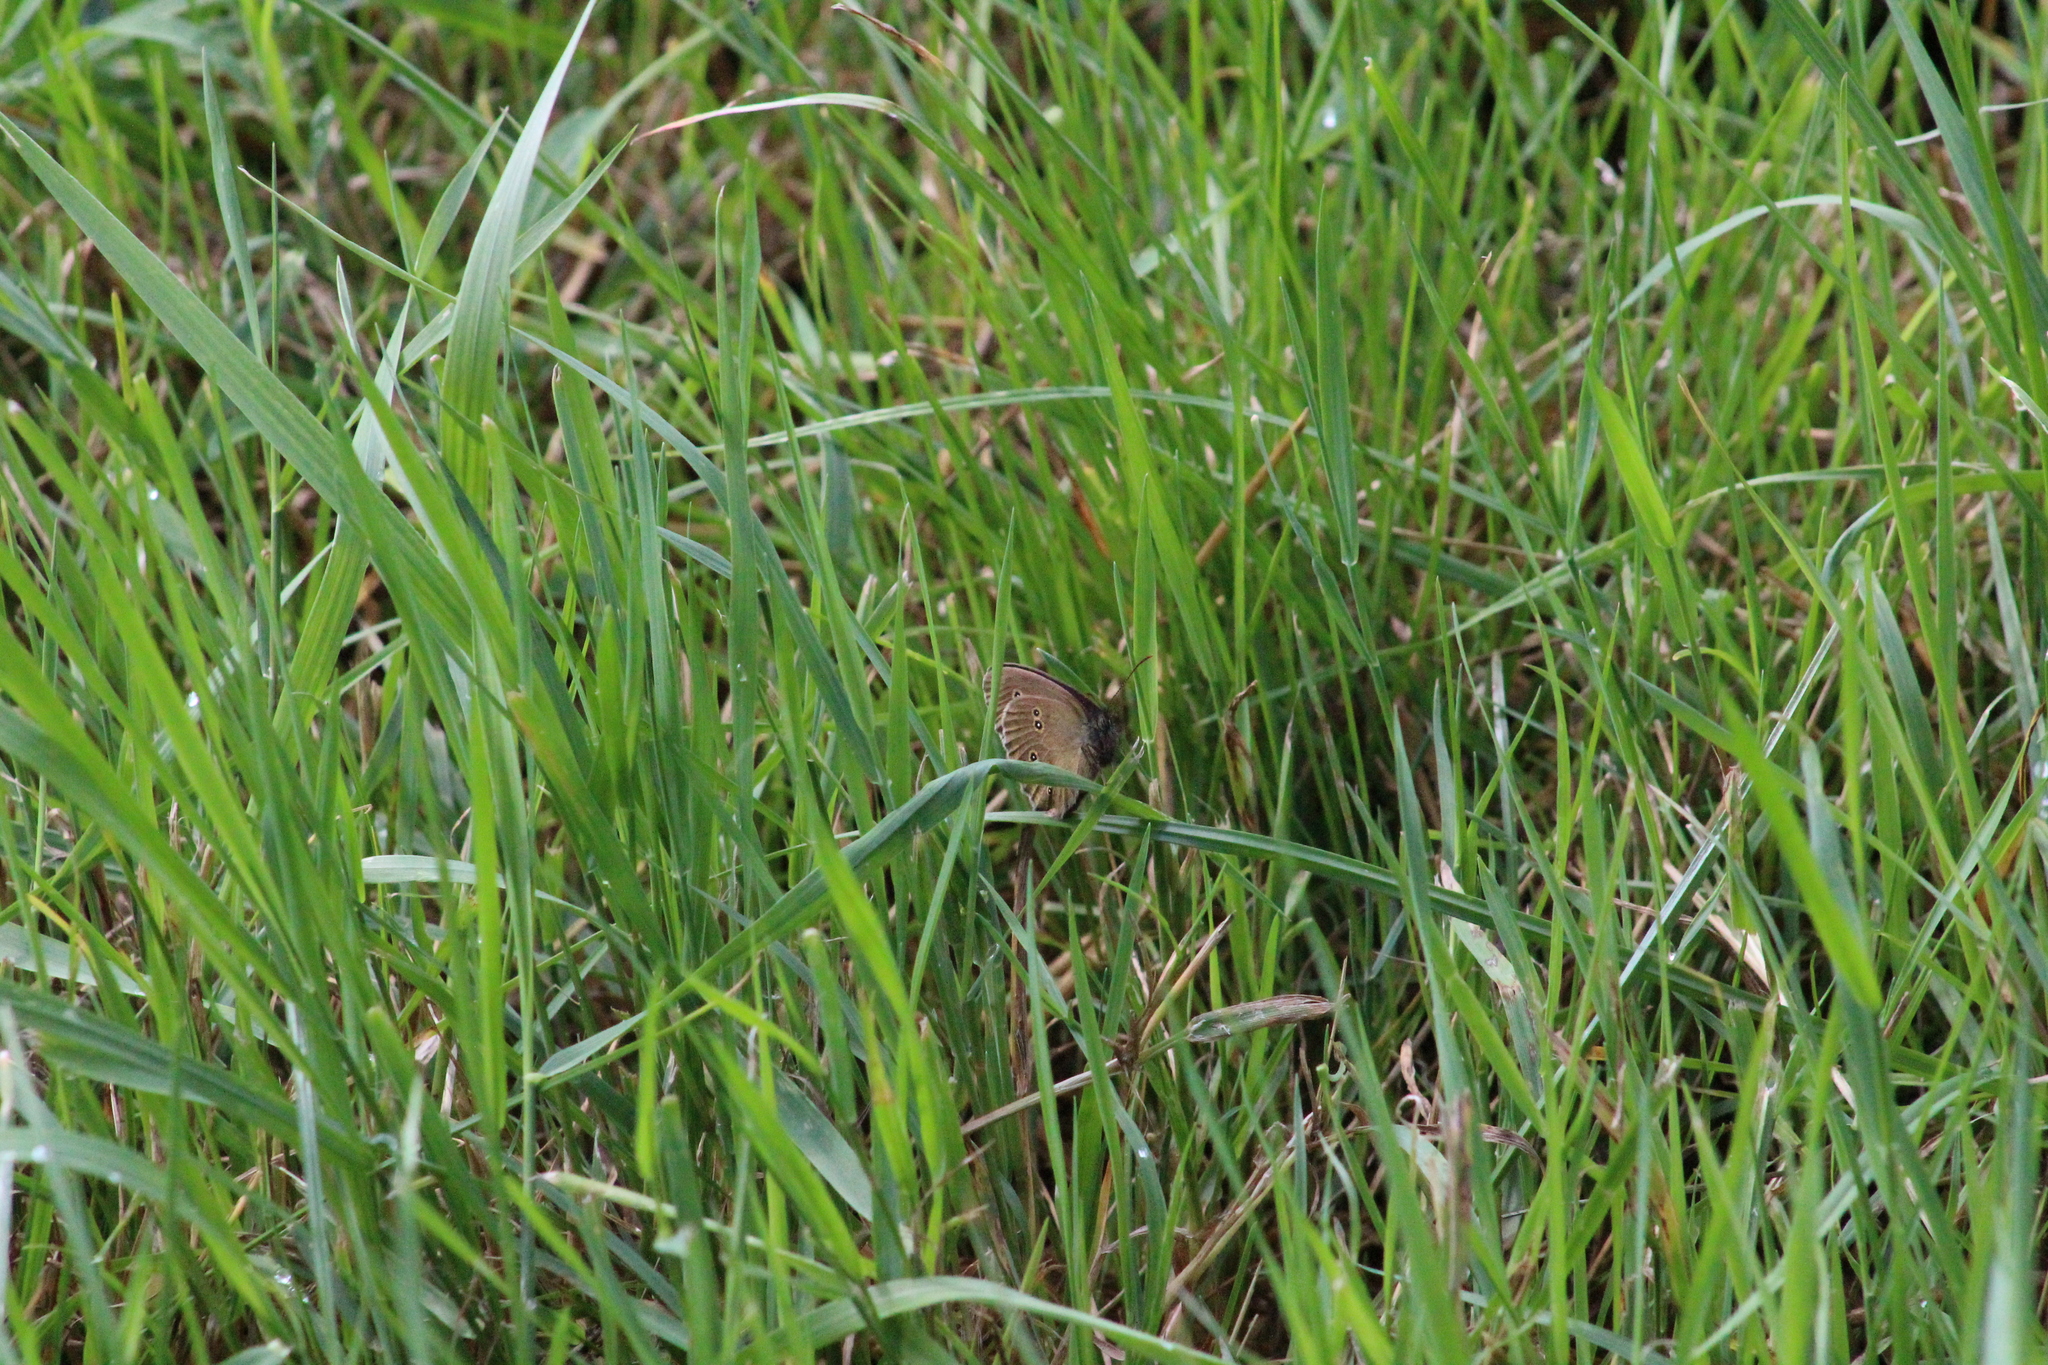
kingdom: Animalia
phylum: Arthropoda
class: Insecta
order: Lepidoptera
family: Nymphalidae
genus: Aphantopus
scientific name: Aphantopus hyperantus
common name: Ringlet
